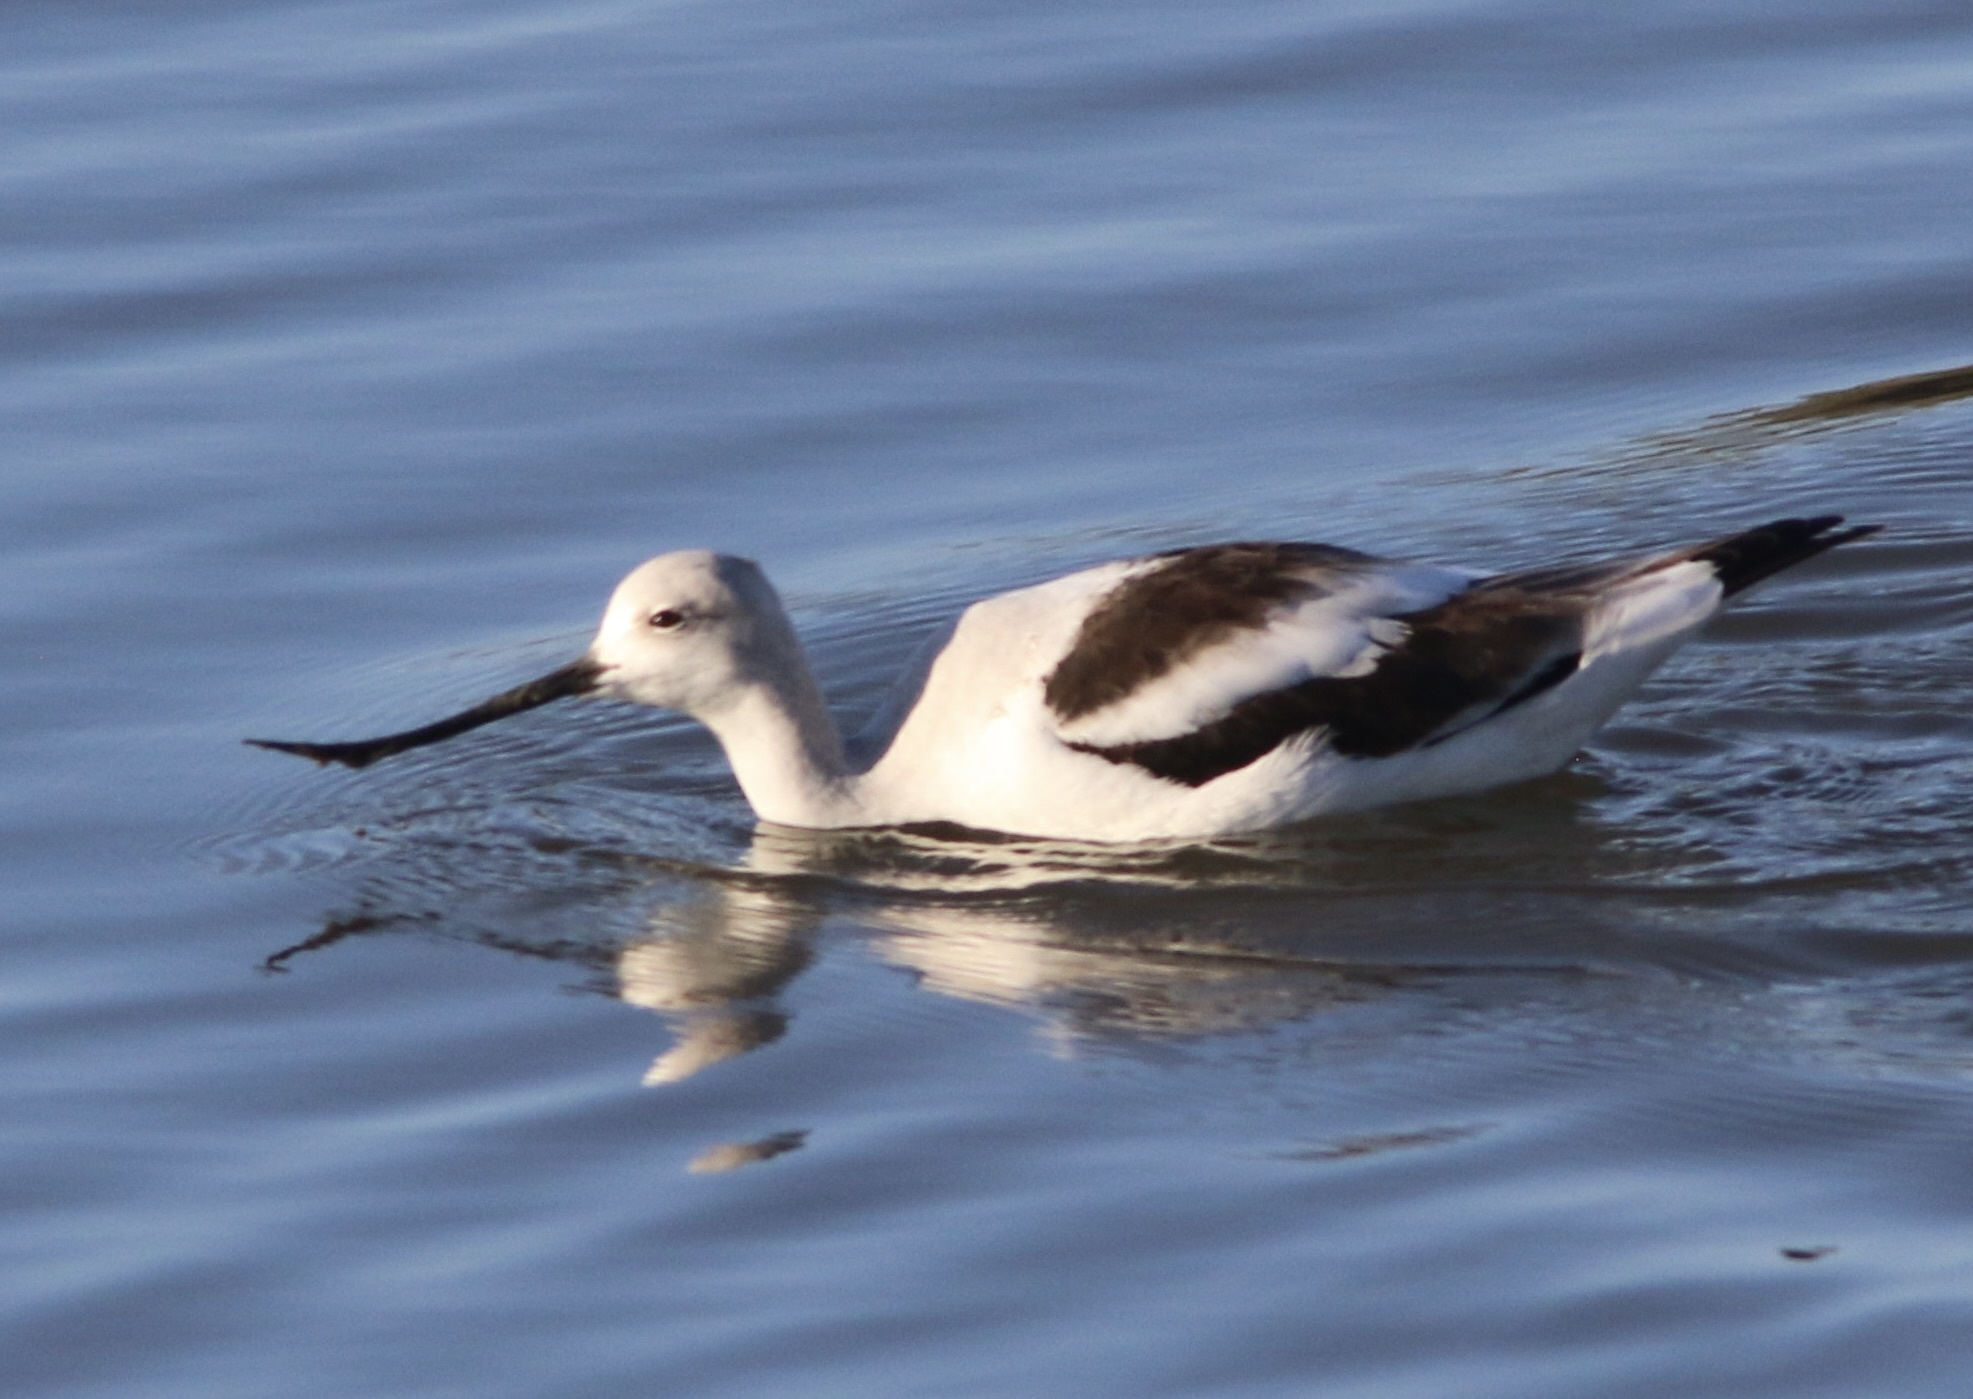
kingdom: Animalia
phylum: Chordata
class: Aves
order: Charadriiformes
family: Recurvirostridae
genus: Recurvirostra
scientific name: Recurvirostra americana
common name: American avocet
